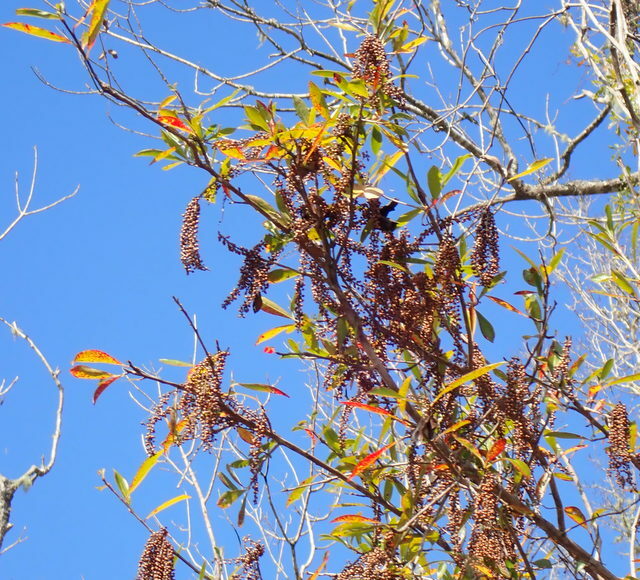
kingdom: Plantae
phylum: Tracheophyta
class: Magnoliopsida
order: Ericales
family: Cyrillaceae
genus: Cyrilla
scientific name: Cyrilla racemiflora
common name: Black titi
